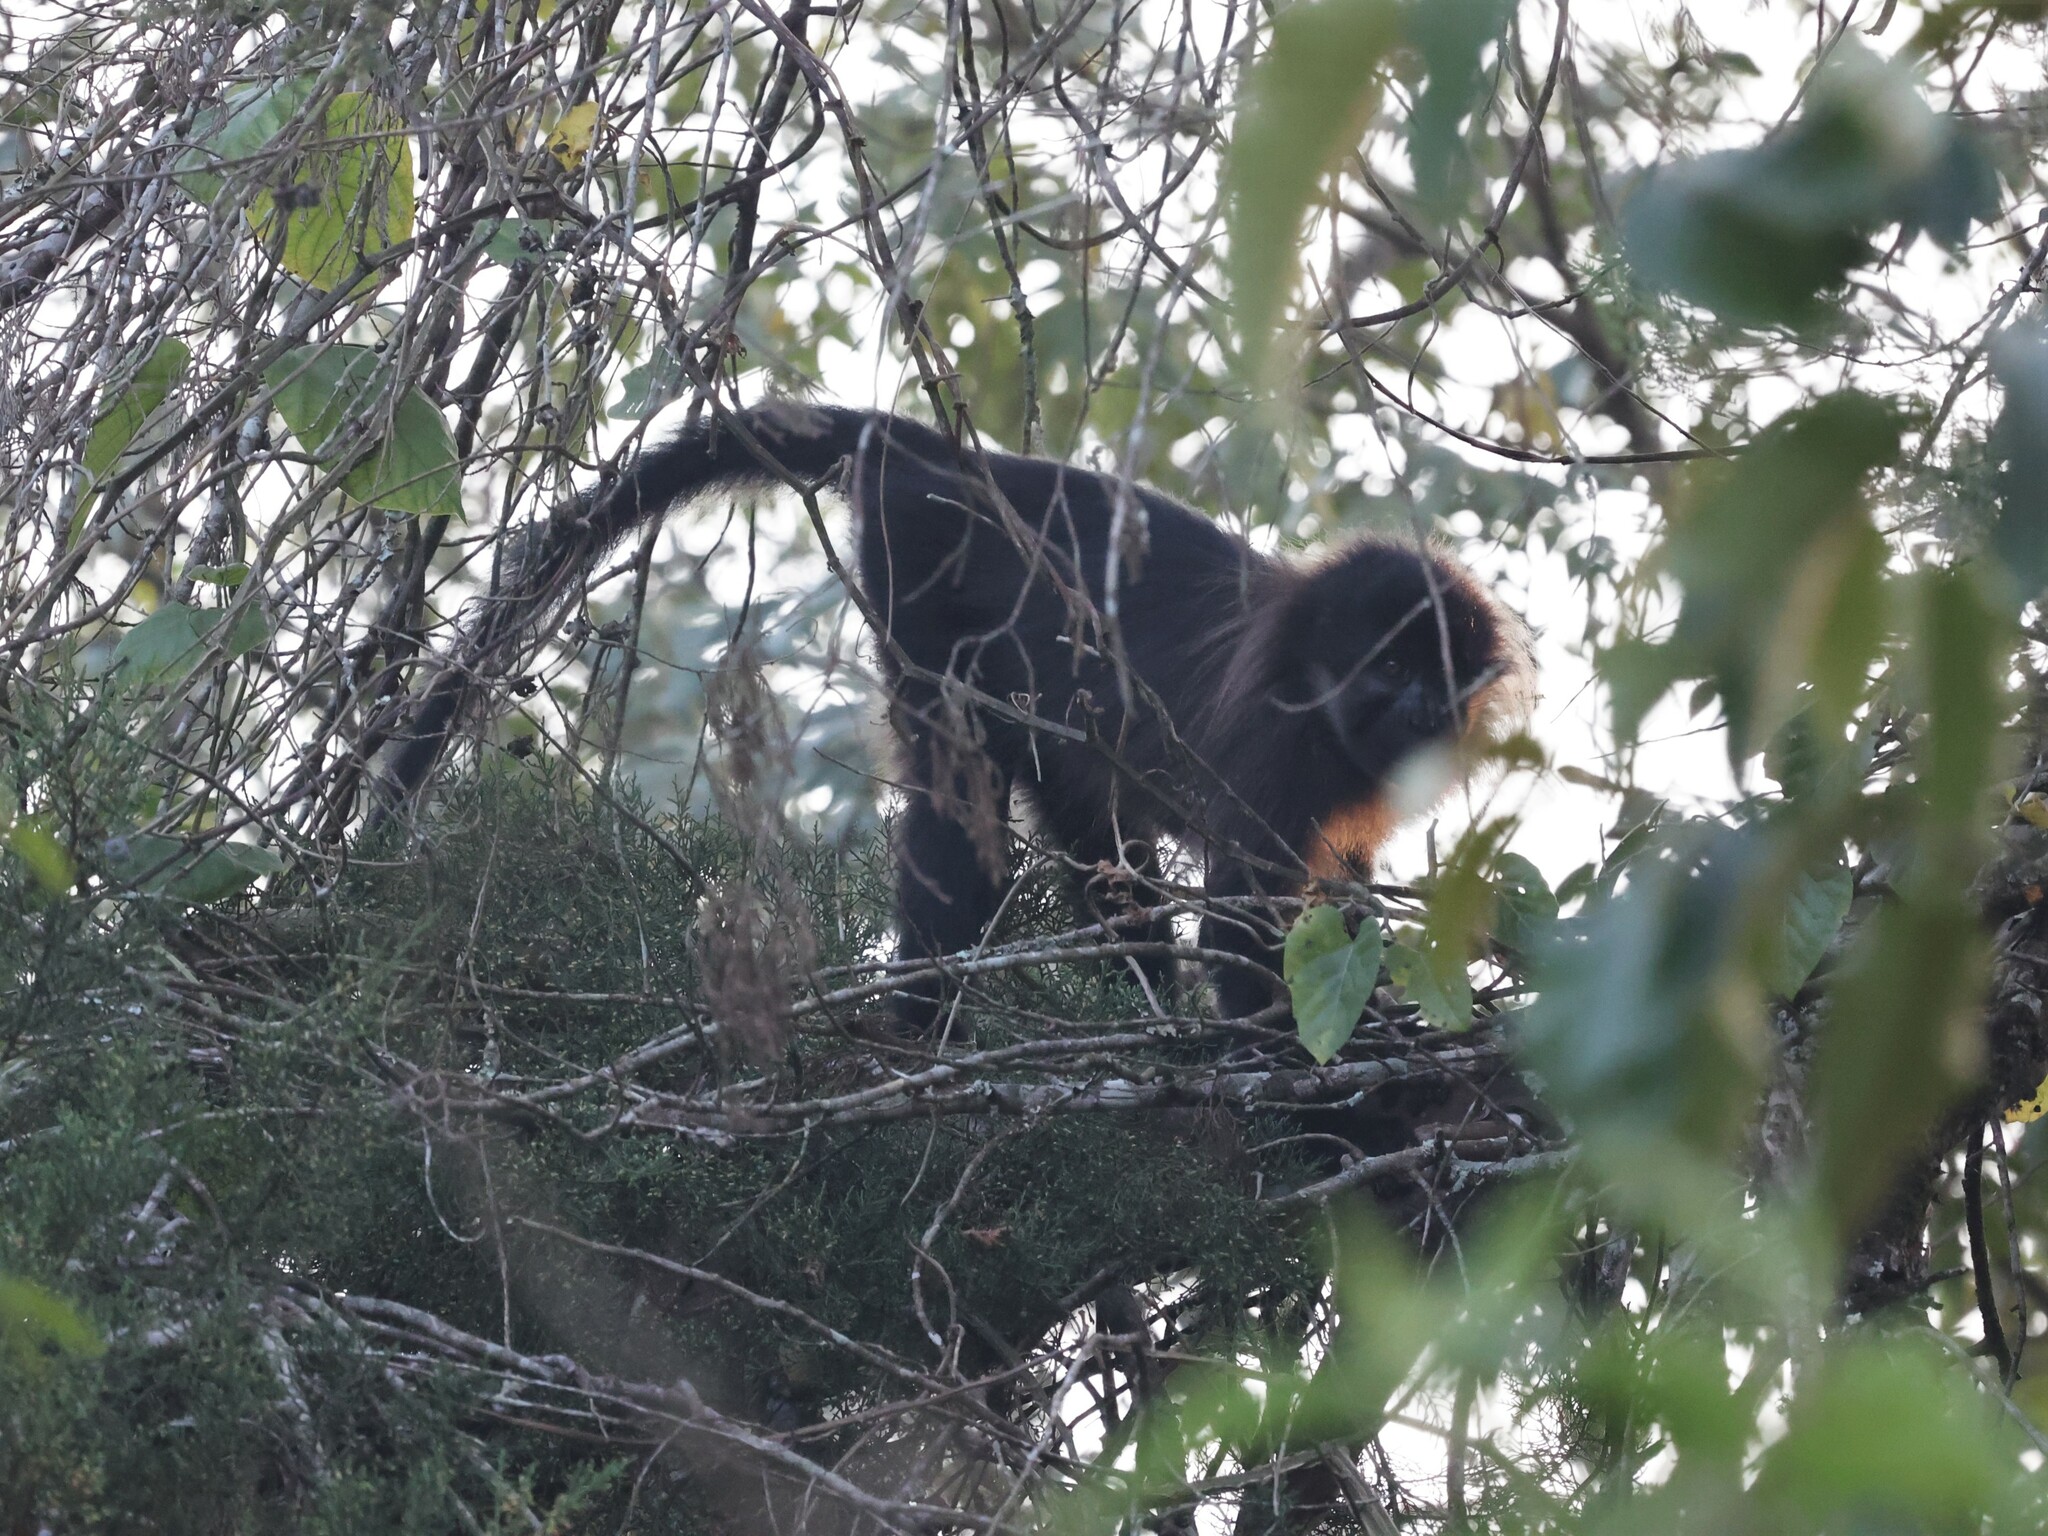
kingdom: Animalia
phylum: Chordata
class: Mammalia
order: Primates
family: Cercopithecidae
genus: Lophocebus
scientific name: Lophocebus albigena
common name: Gray-cheeked mangabey
